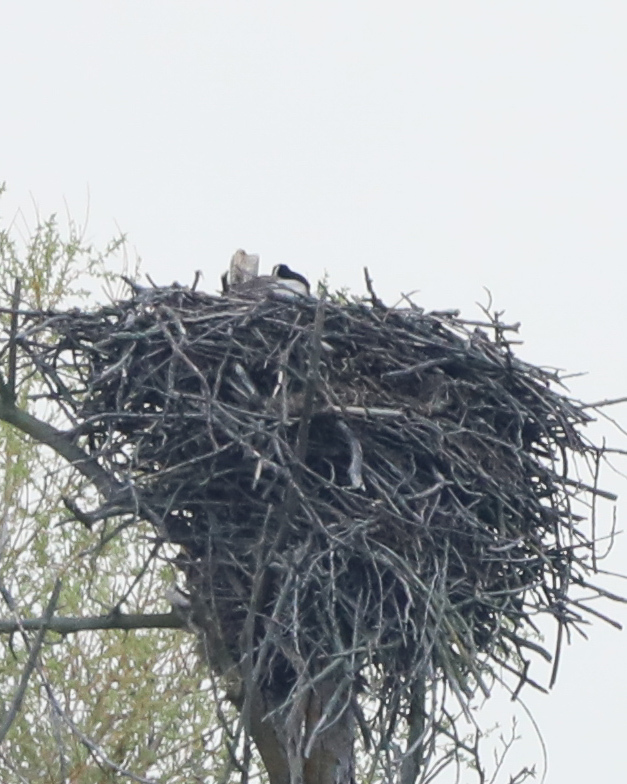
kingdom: Animalia
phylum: Chordata
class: Aves
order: Anseriformes
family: Anatidae
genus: Branta
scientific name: Branta canadensis
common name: Canada goose
